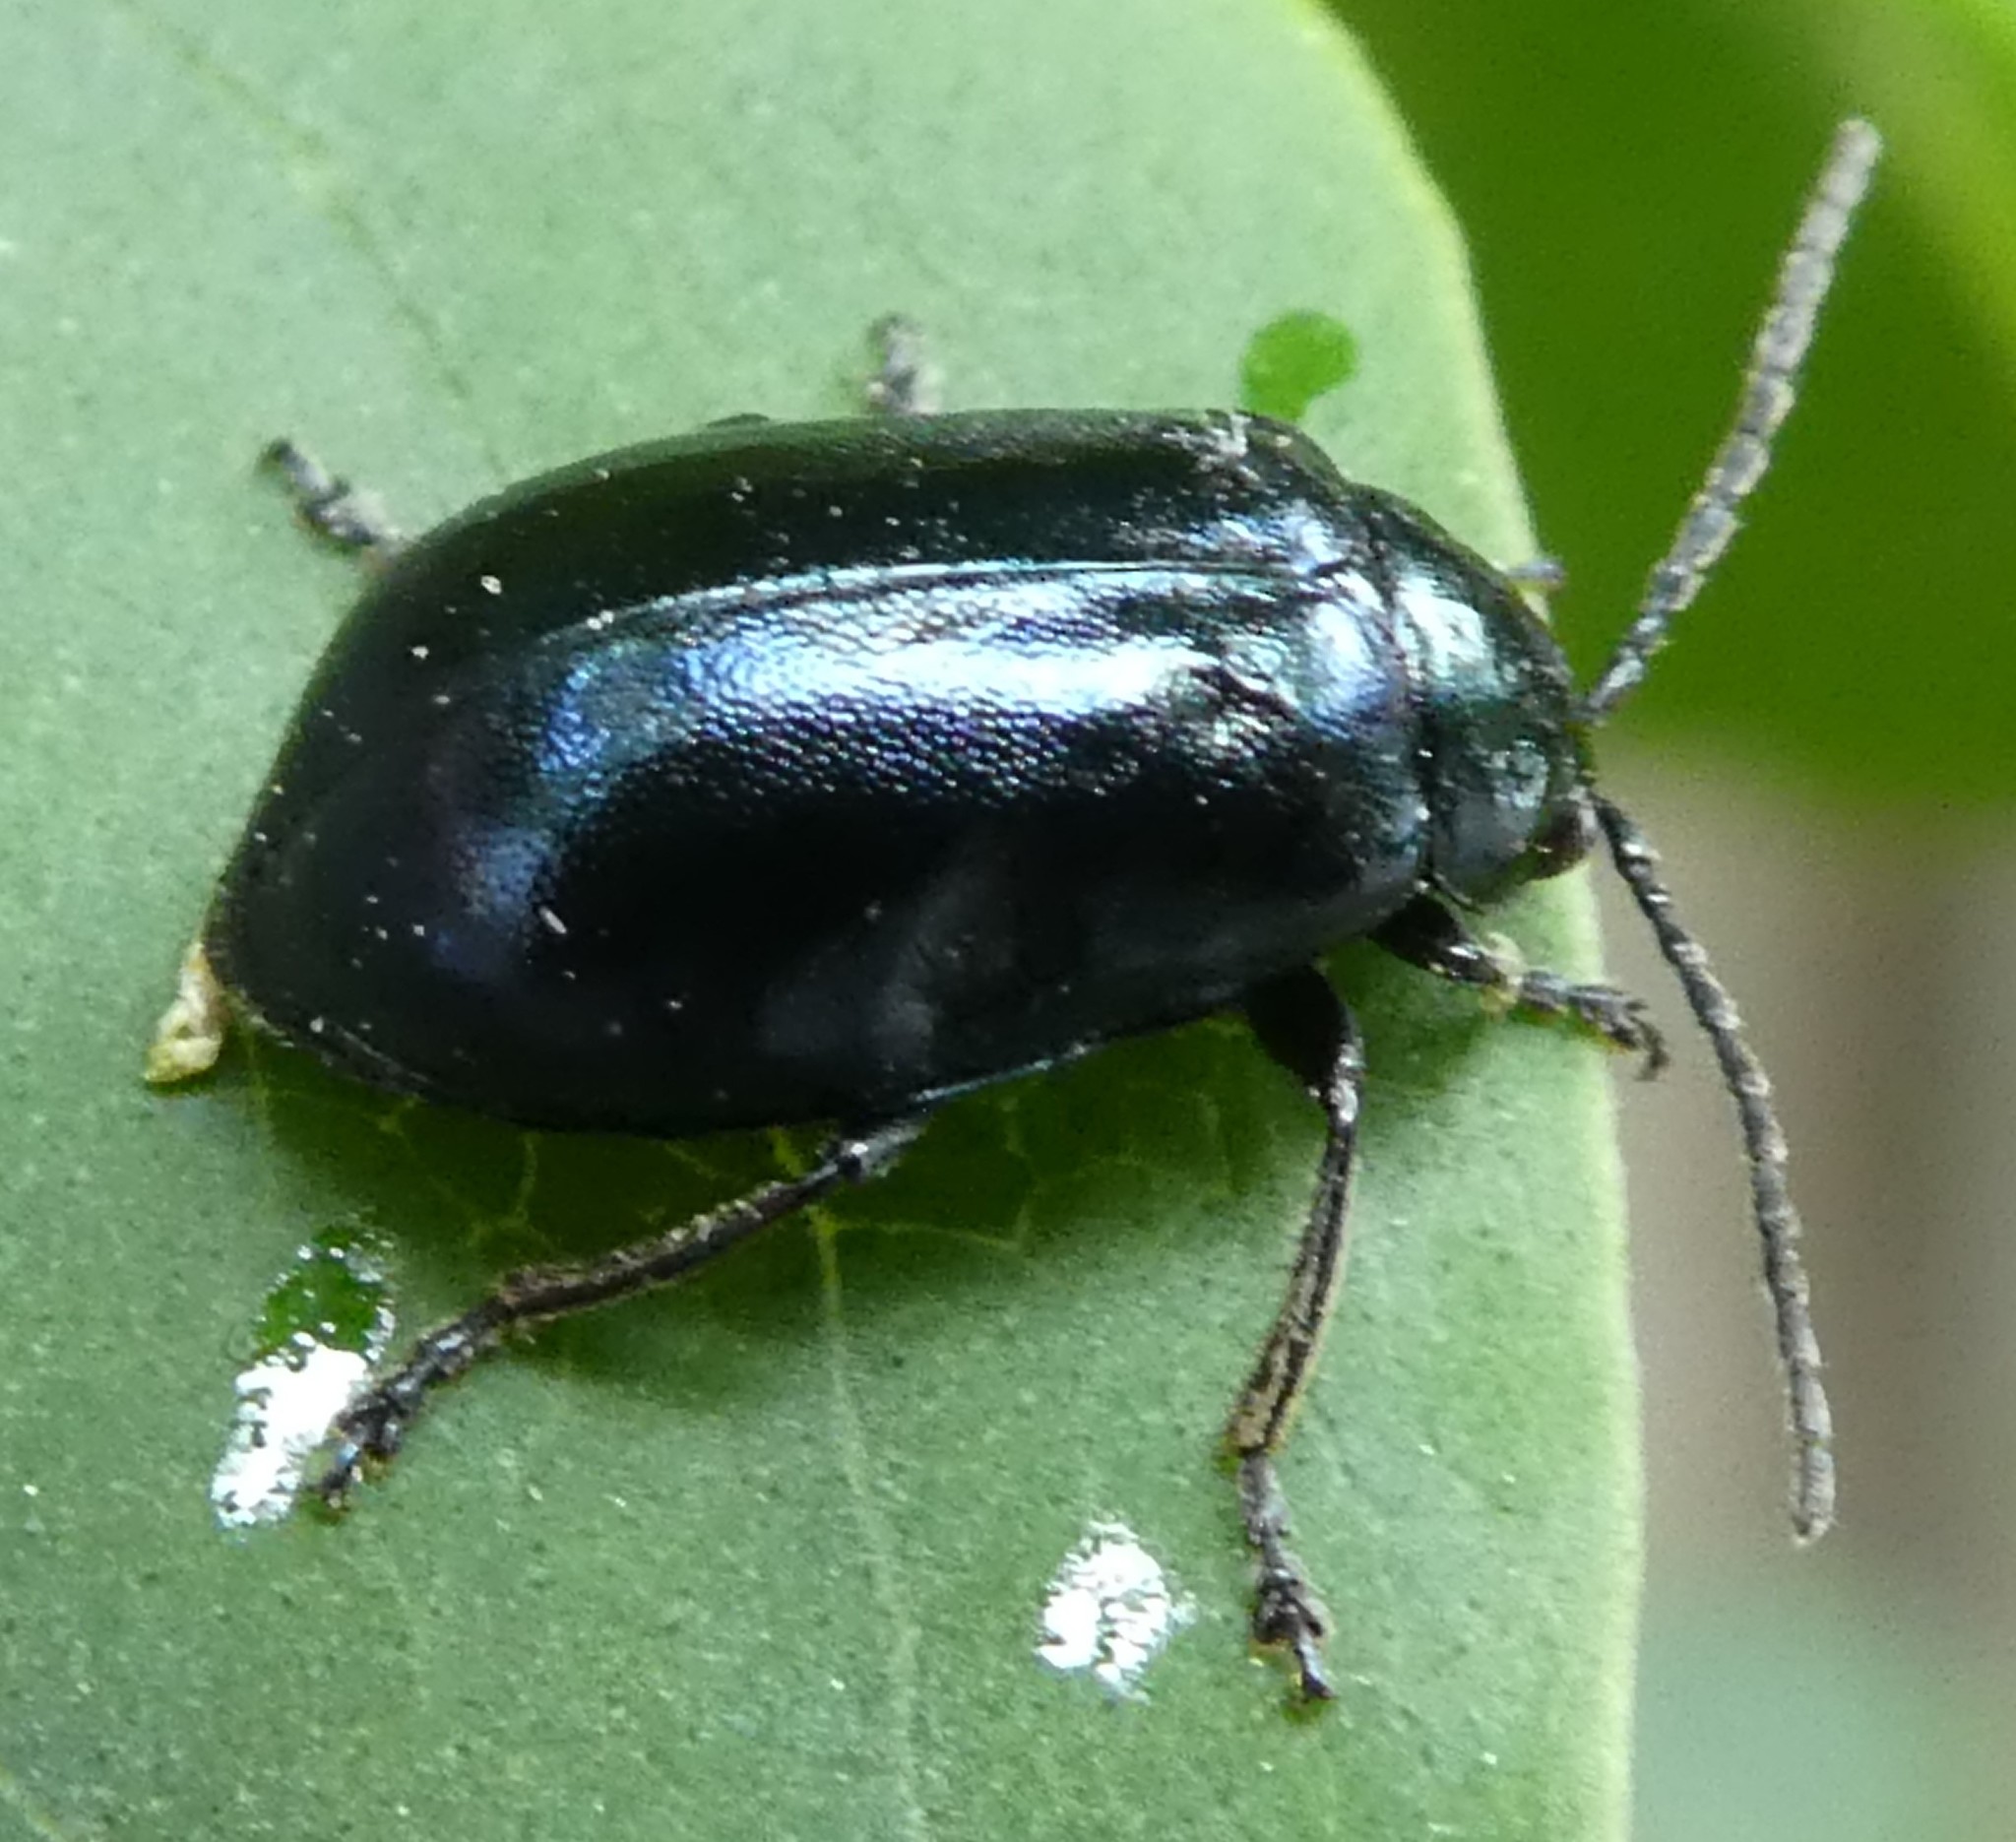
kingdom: Animalia
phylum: Arthropoda
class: Insecta
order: Coleoptera
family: Chrysomelidae
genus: Agelastica
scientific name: Agelastica alni
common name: Alder leaf beetle
